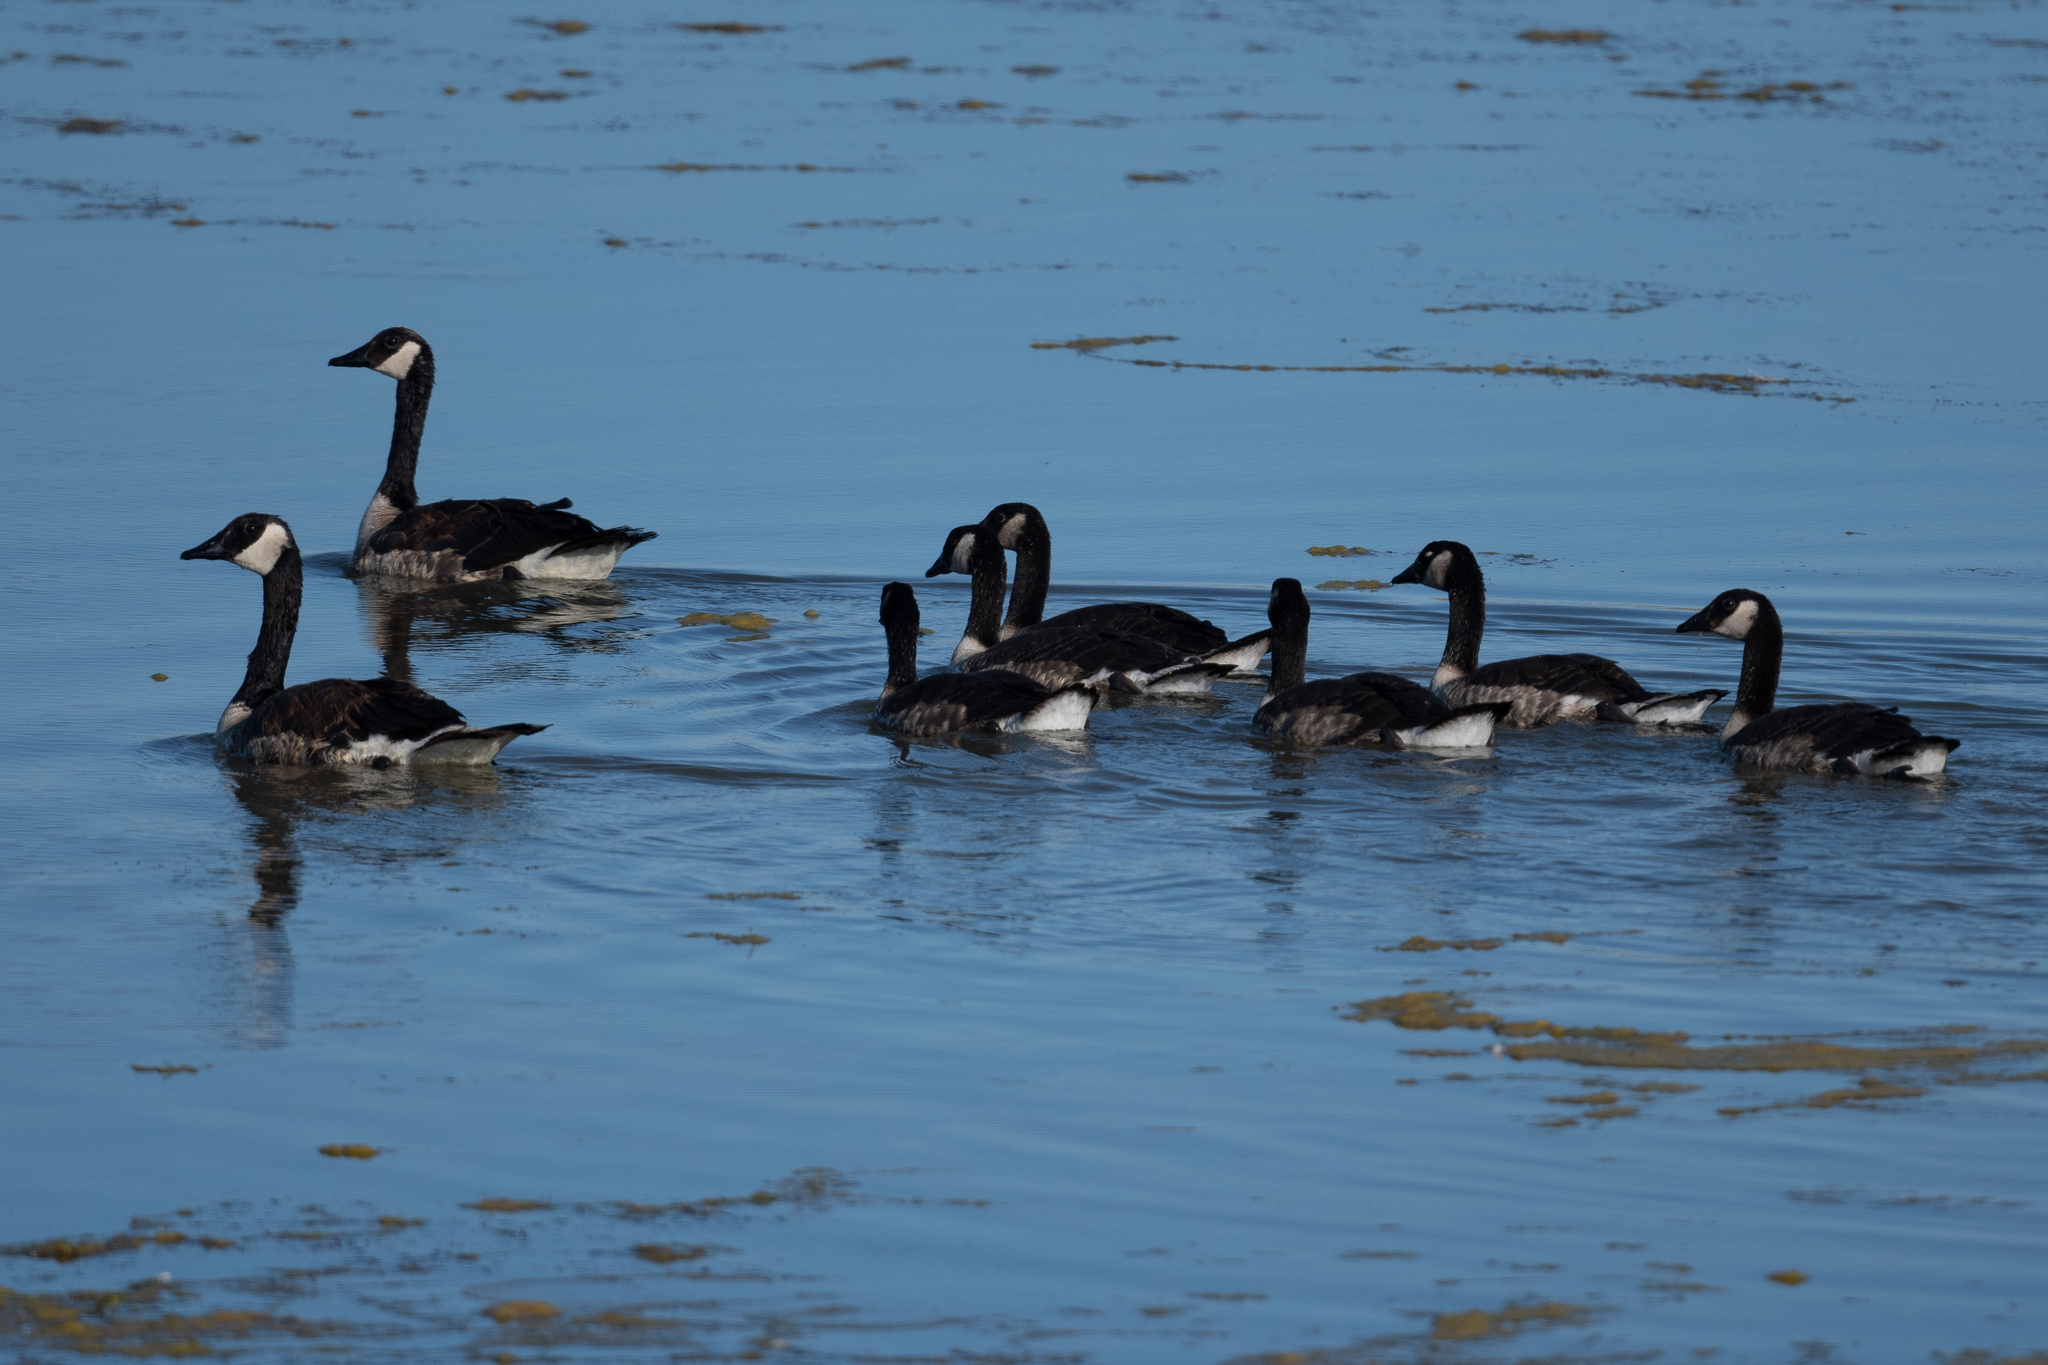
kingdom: Animalia
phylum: Chordata
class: Aves
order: Anseriformes
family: Anatidae
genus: Branta
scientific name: Branta canadensis
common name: Canada goose
